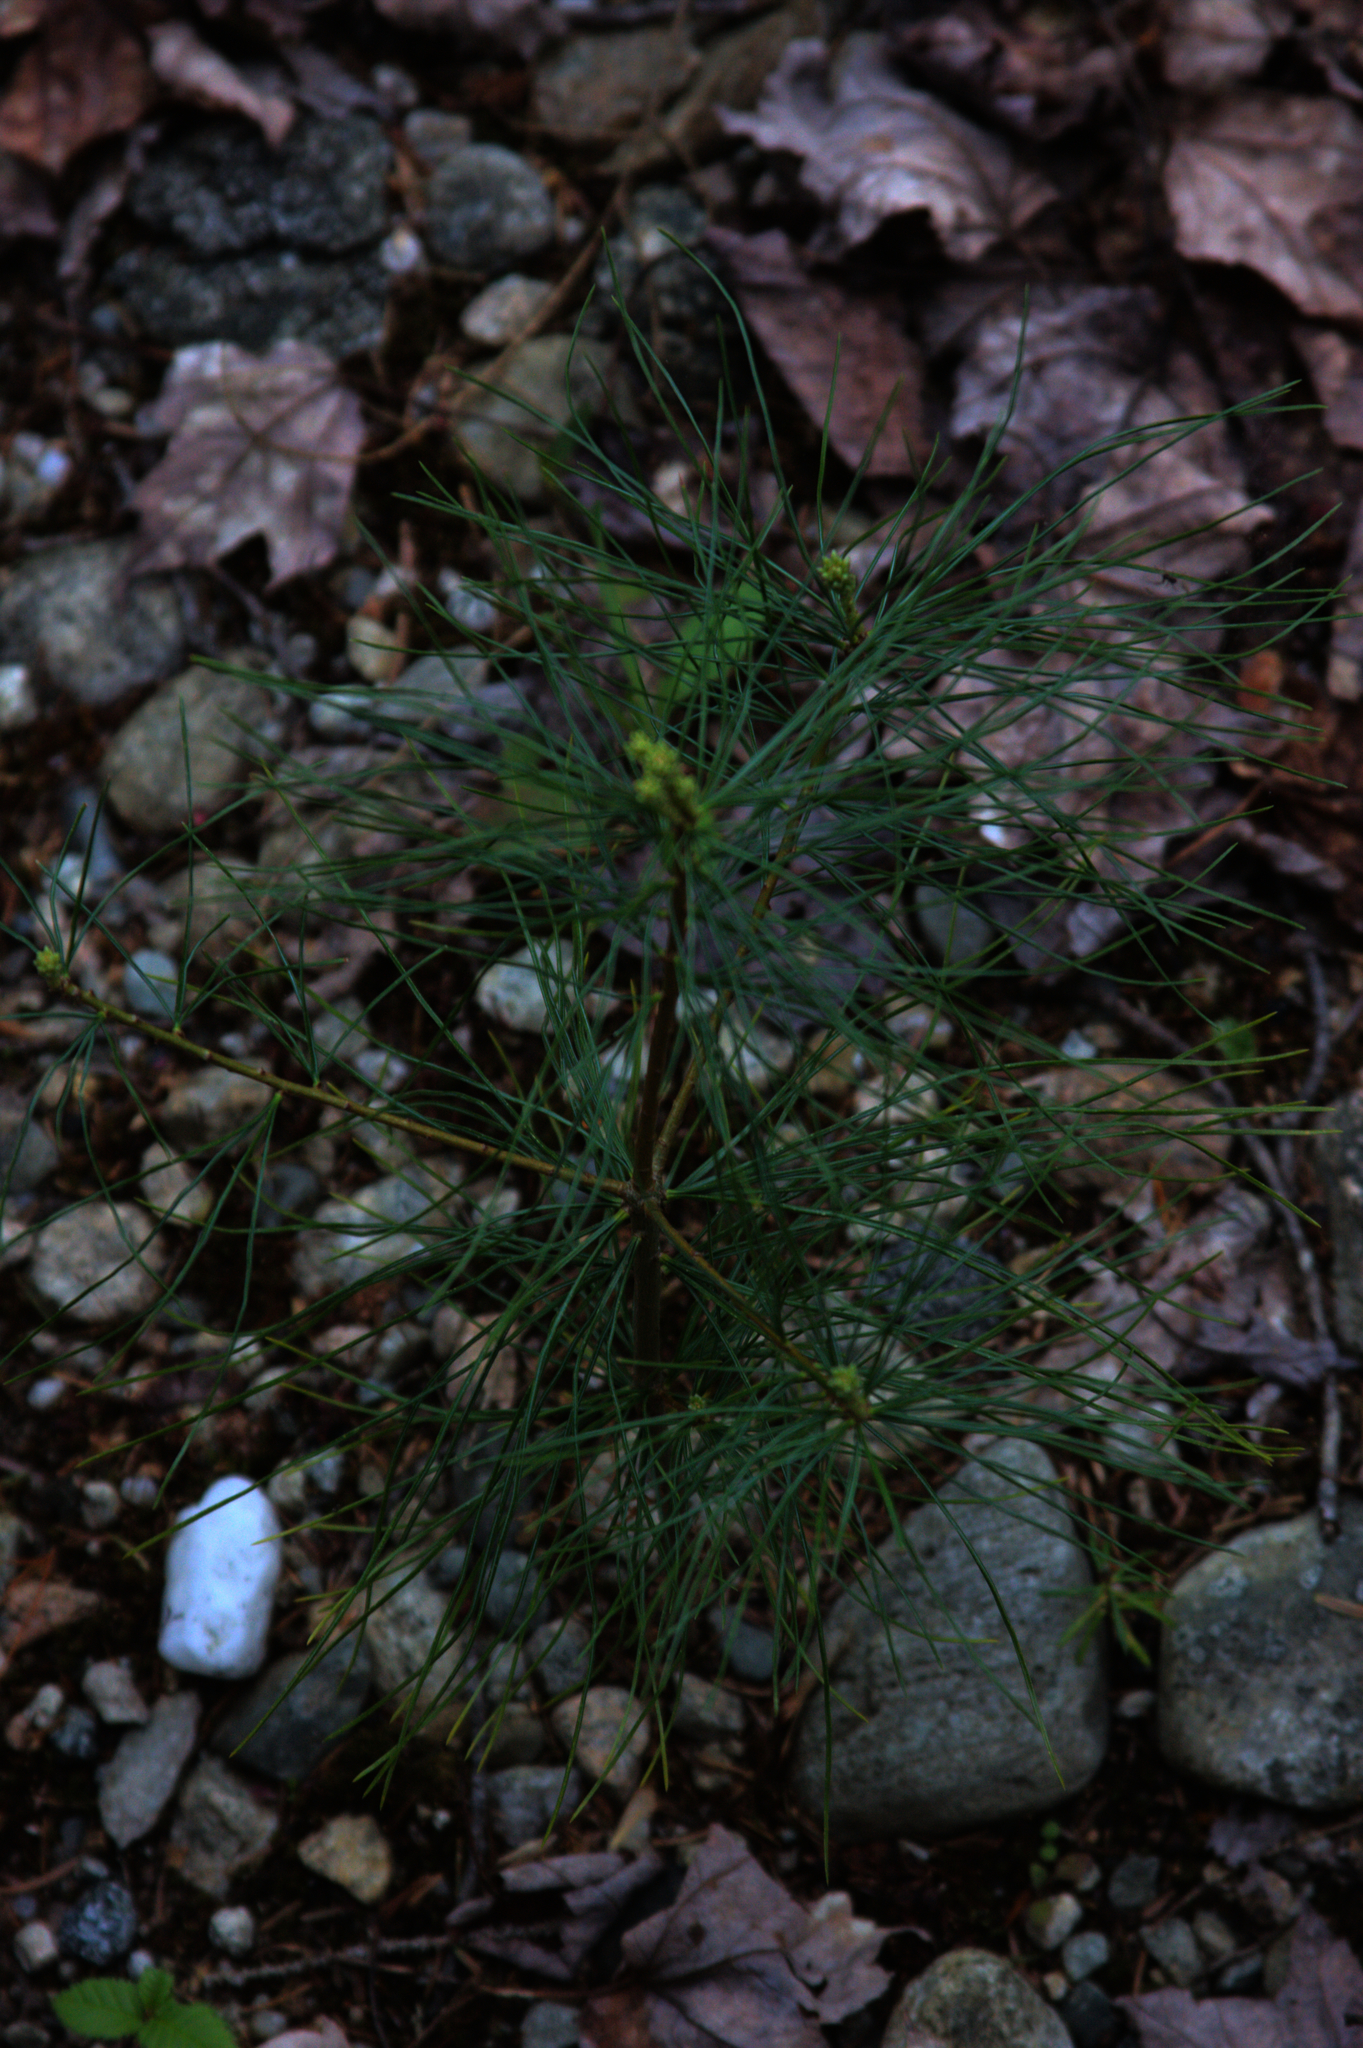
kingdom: Plantae
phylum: Tracheophyta
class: Pinopsida
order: Pinales
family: Pinaceae
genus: Pinus
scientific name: Pinus strobus
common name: Weymouth pine
